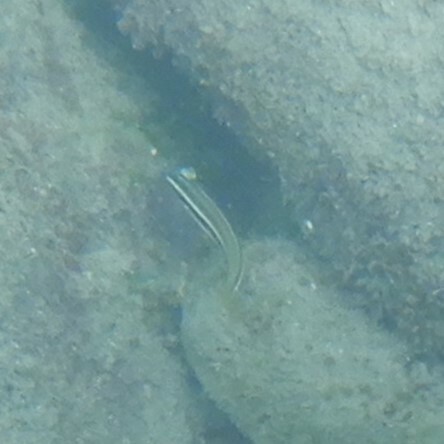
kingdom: Animalia
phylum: Chordata
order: Perciformes
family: Labridae
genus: Coris
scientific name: Coris julis
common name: Rainbow wrasse
